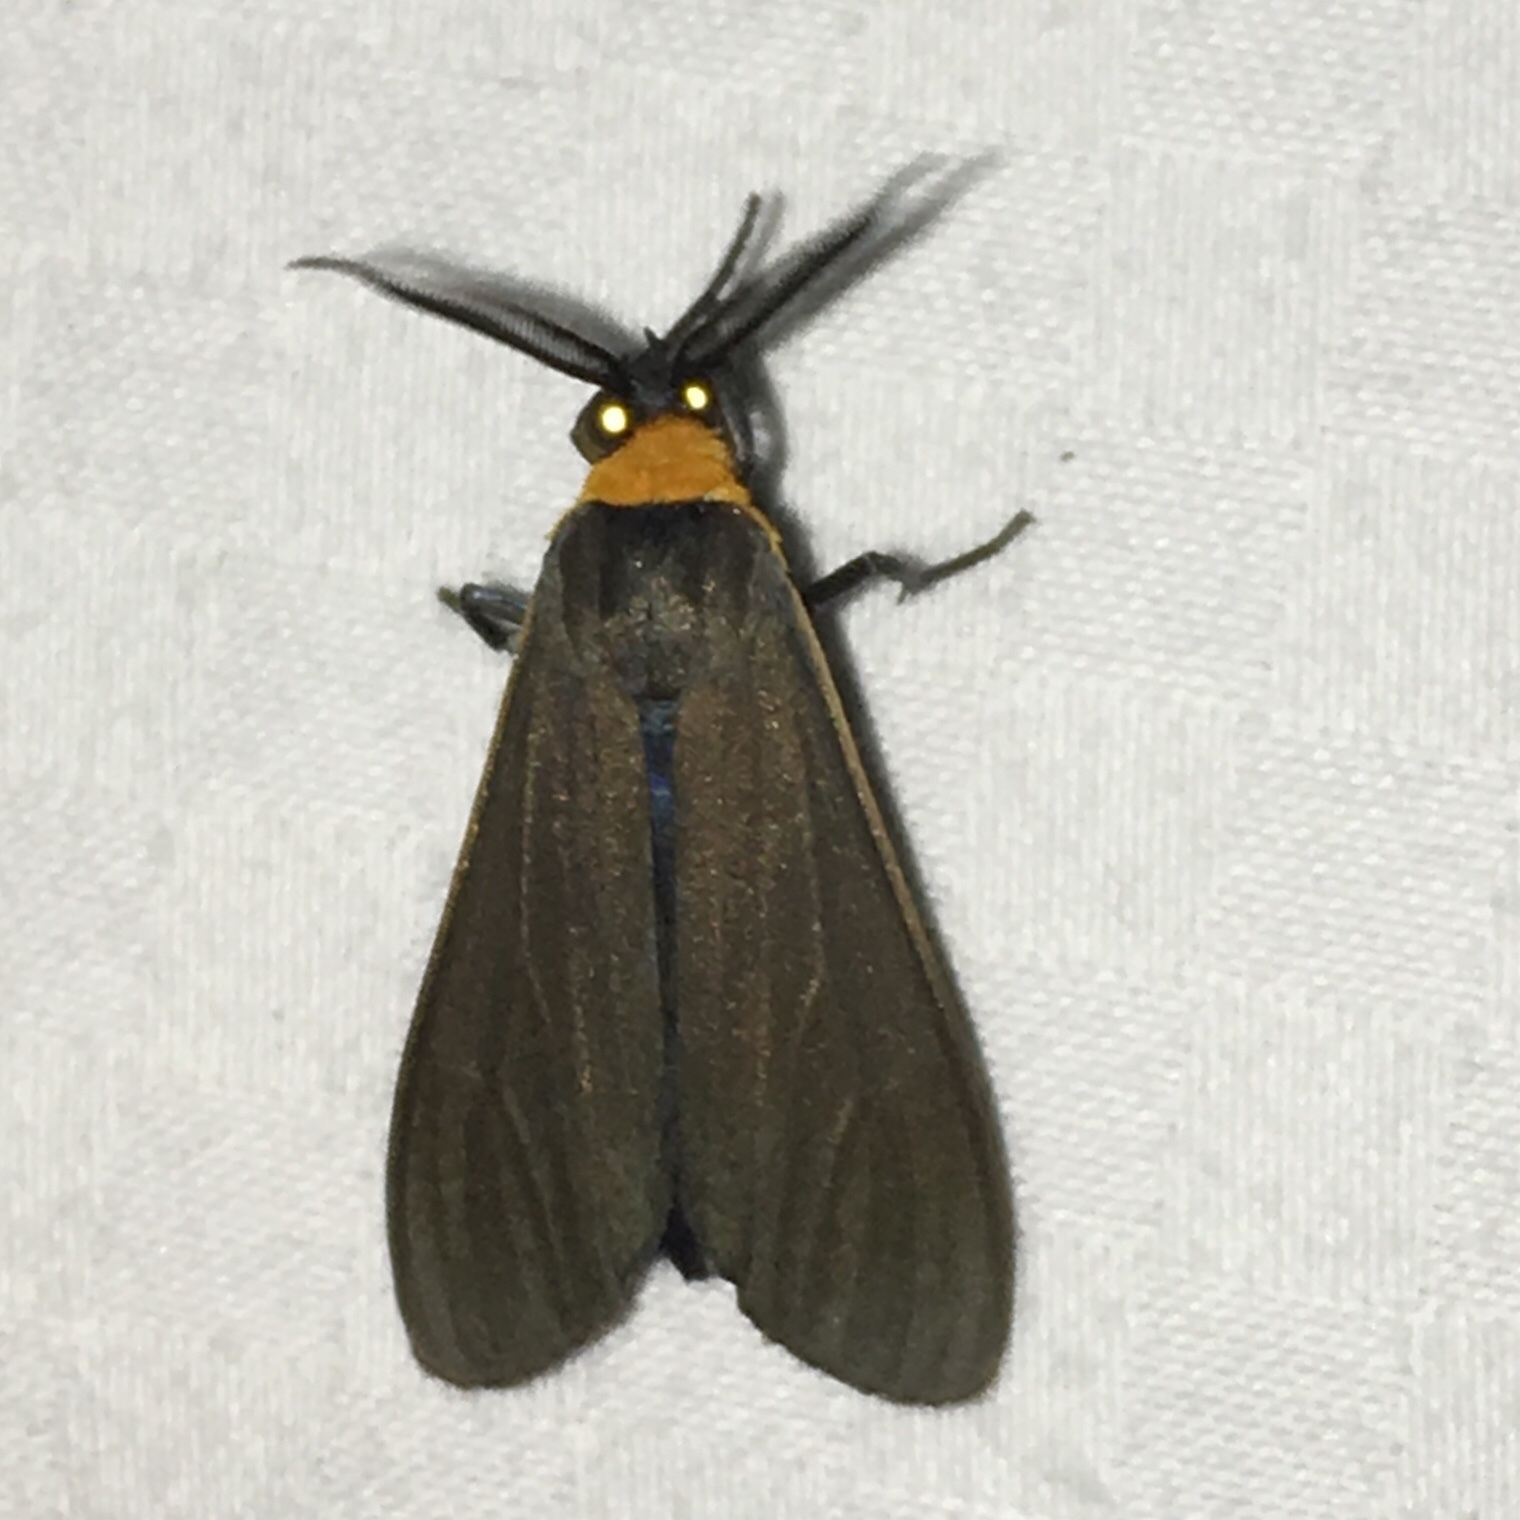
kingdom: Animalia
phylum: Arthropoda
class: Insecta
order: Lepidoptera
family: Erebidae
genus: Cisseps
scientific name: Cisseps fulvicollis
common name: Yellow-collared scape moth
